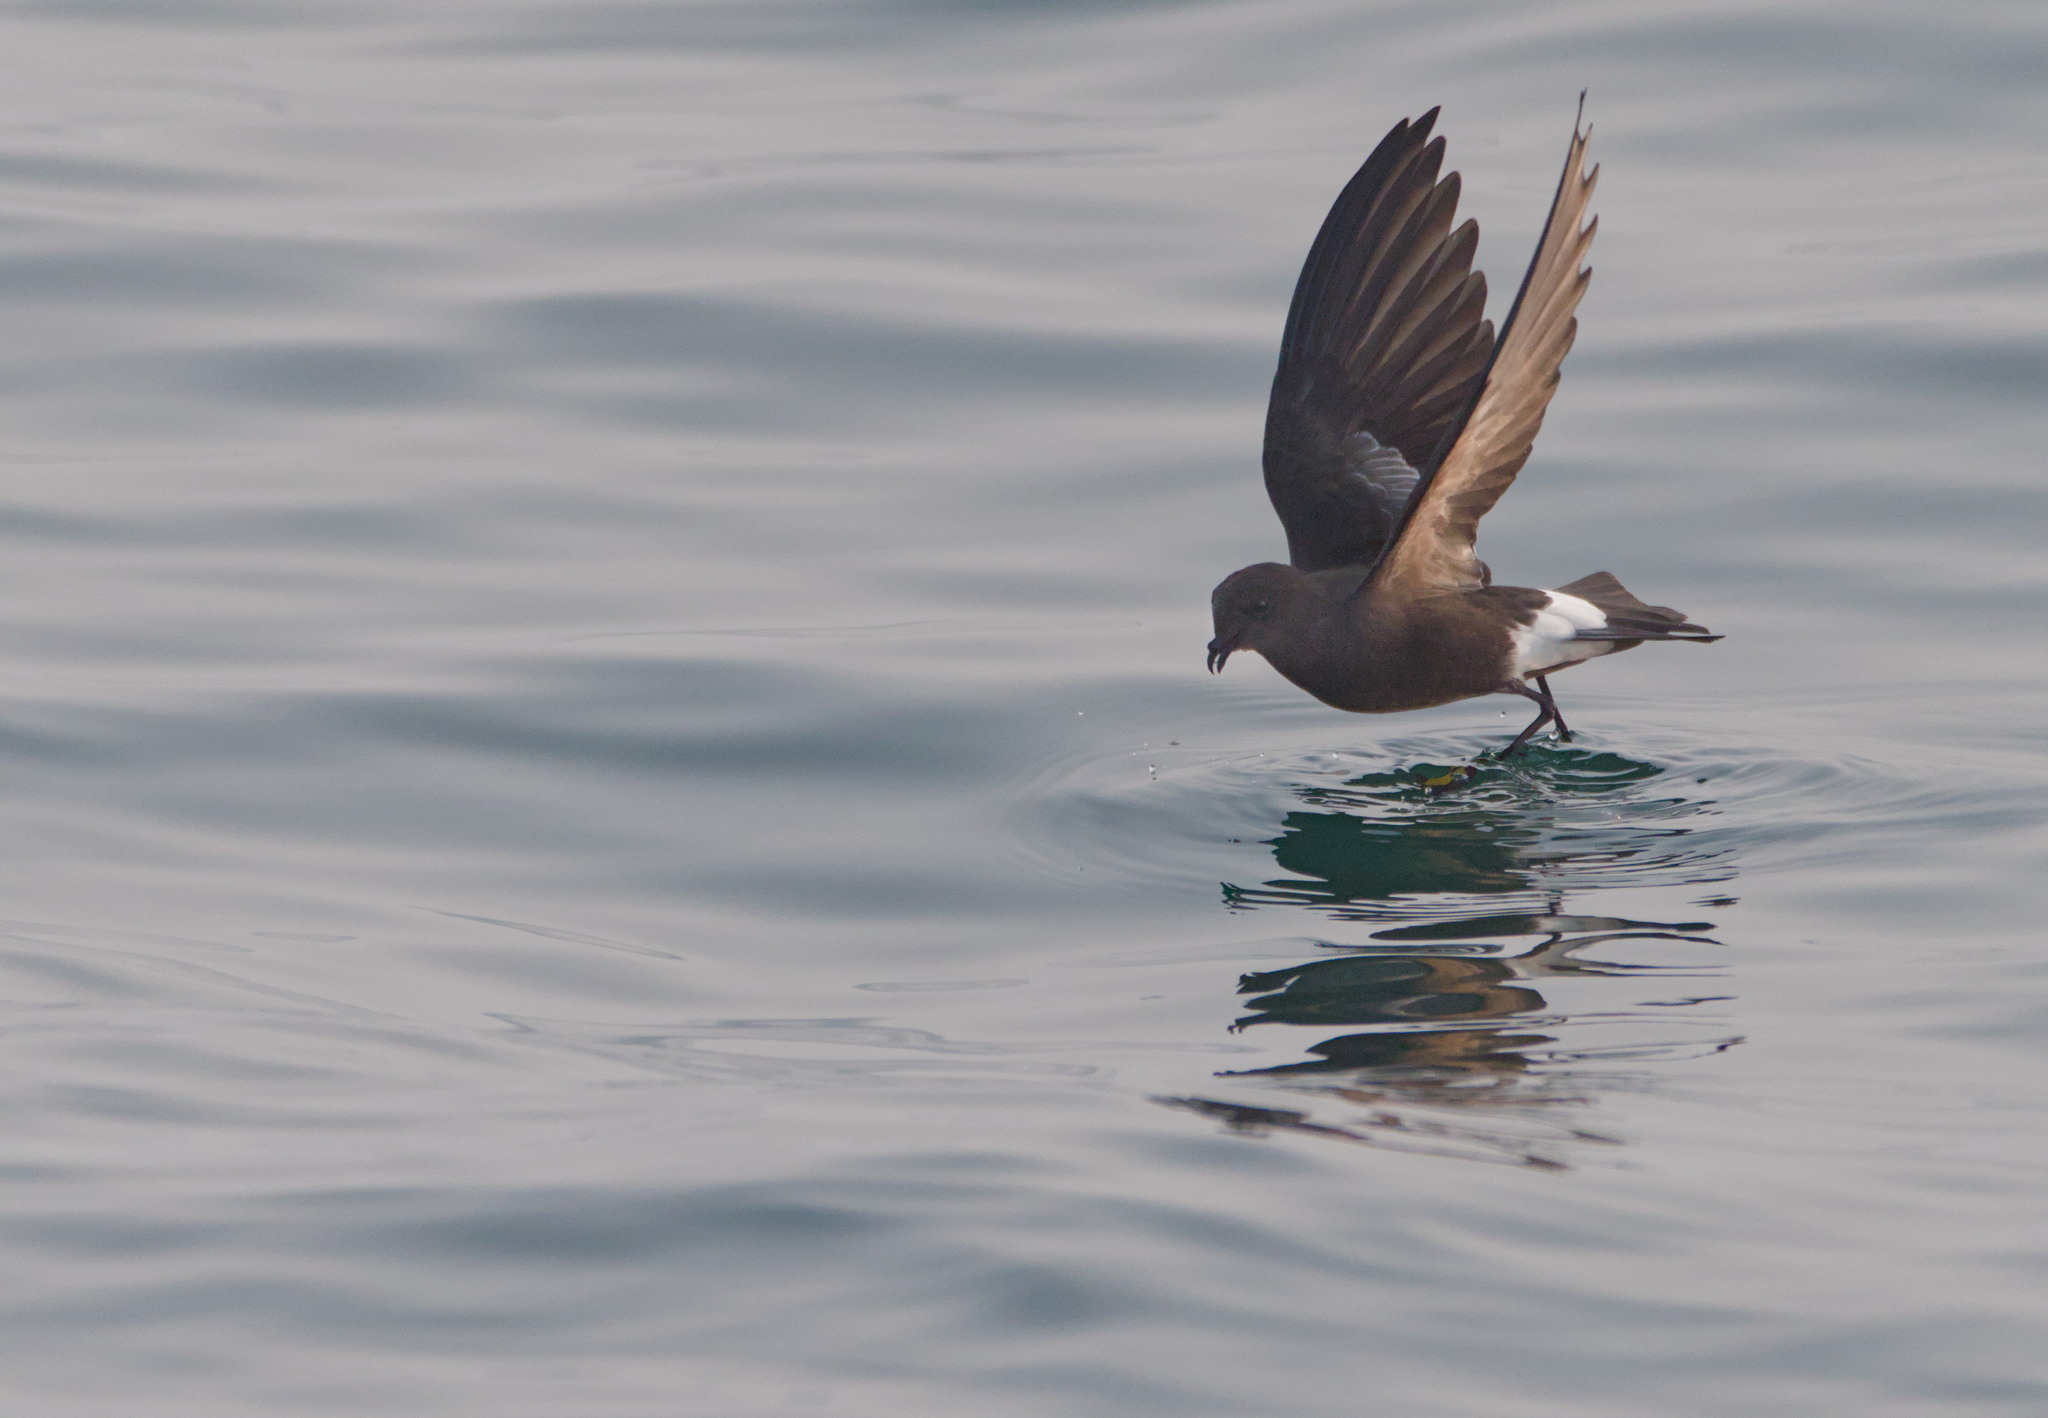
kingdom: Animalia
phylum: Chordata
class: Aves
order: Procellariiformes
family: Hydrobatidae
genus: Oceanites
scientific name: Oceanites oceanicus
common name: Wilson's storm petrel
